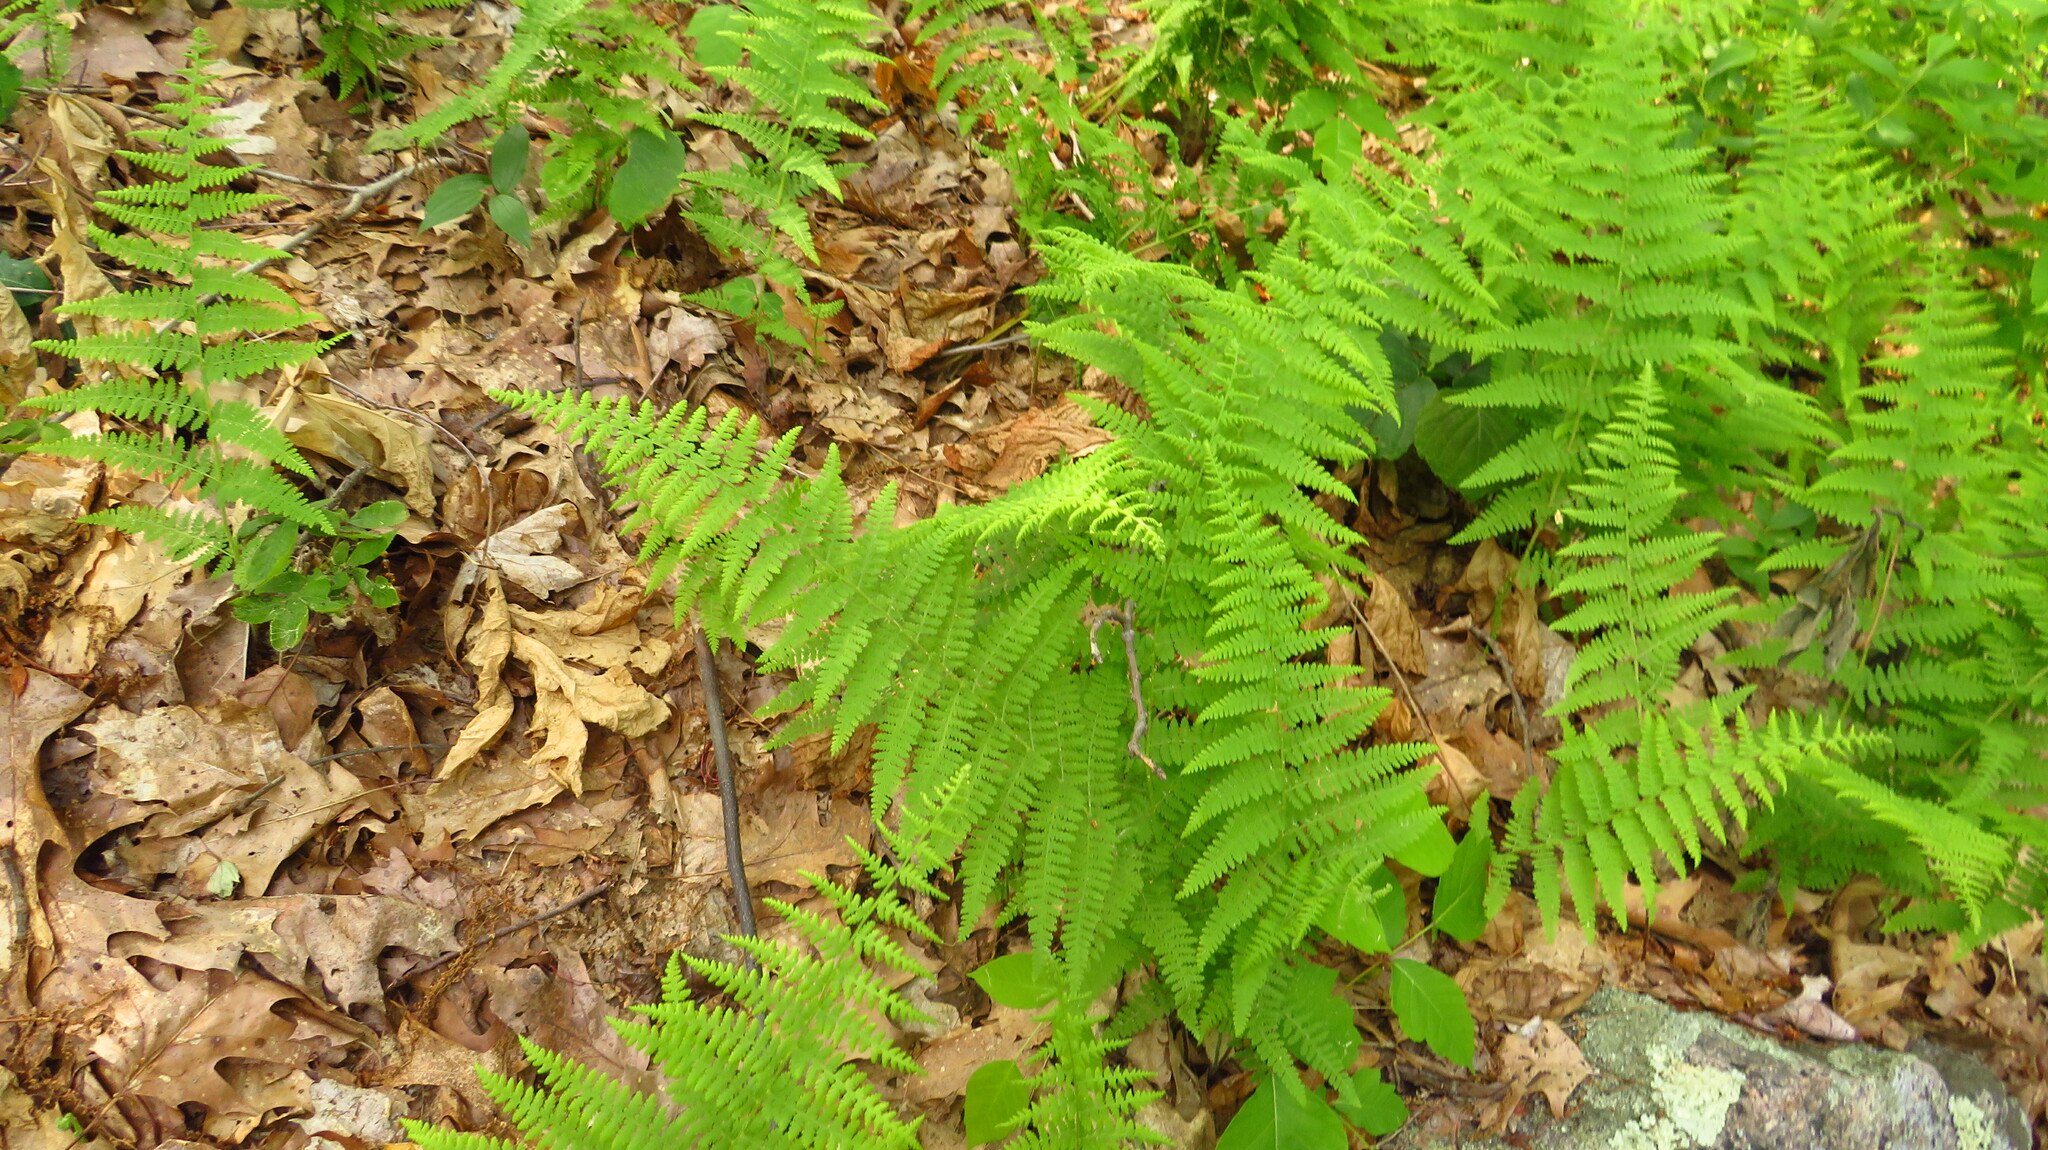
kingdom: Plantae
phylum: Tracheophyta
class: Polypodiopsida
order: Polypodiales
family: Dennstaedtiaceae
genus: Sitobolium
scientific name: Sitobolium punctilobum
